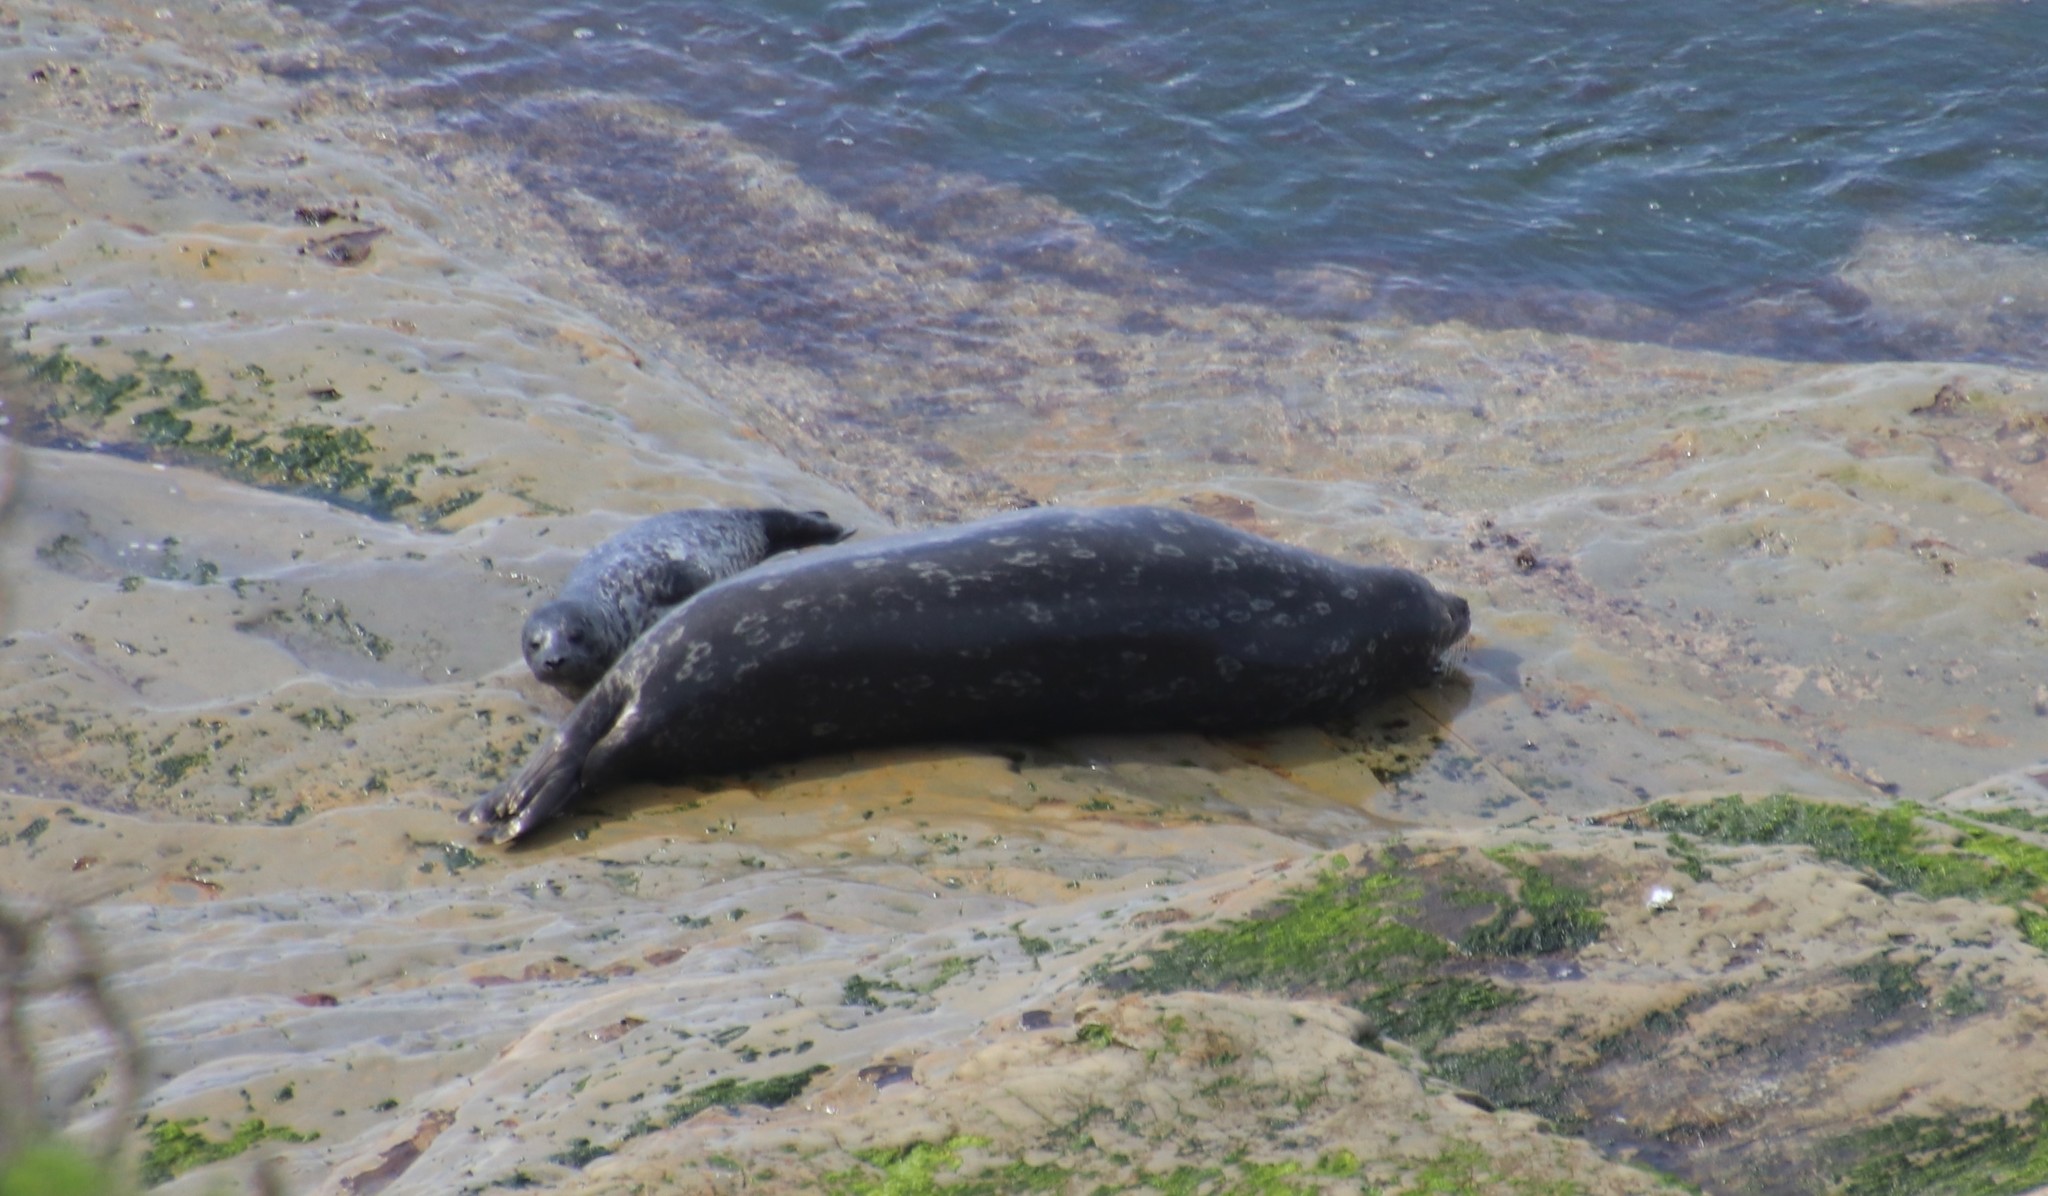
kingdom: Animalia
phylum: Chordata
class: Mammalia
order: Carnivora
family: Phocidae
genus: Phoca
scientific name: Phoca vitulina
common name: Harbor seal
